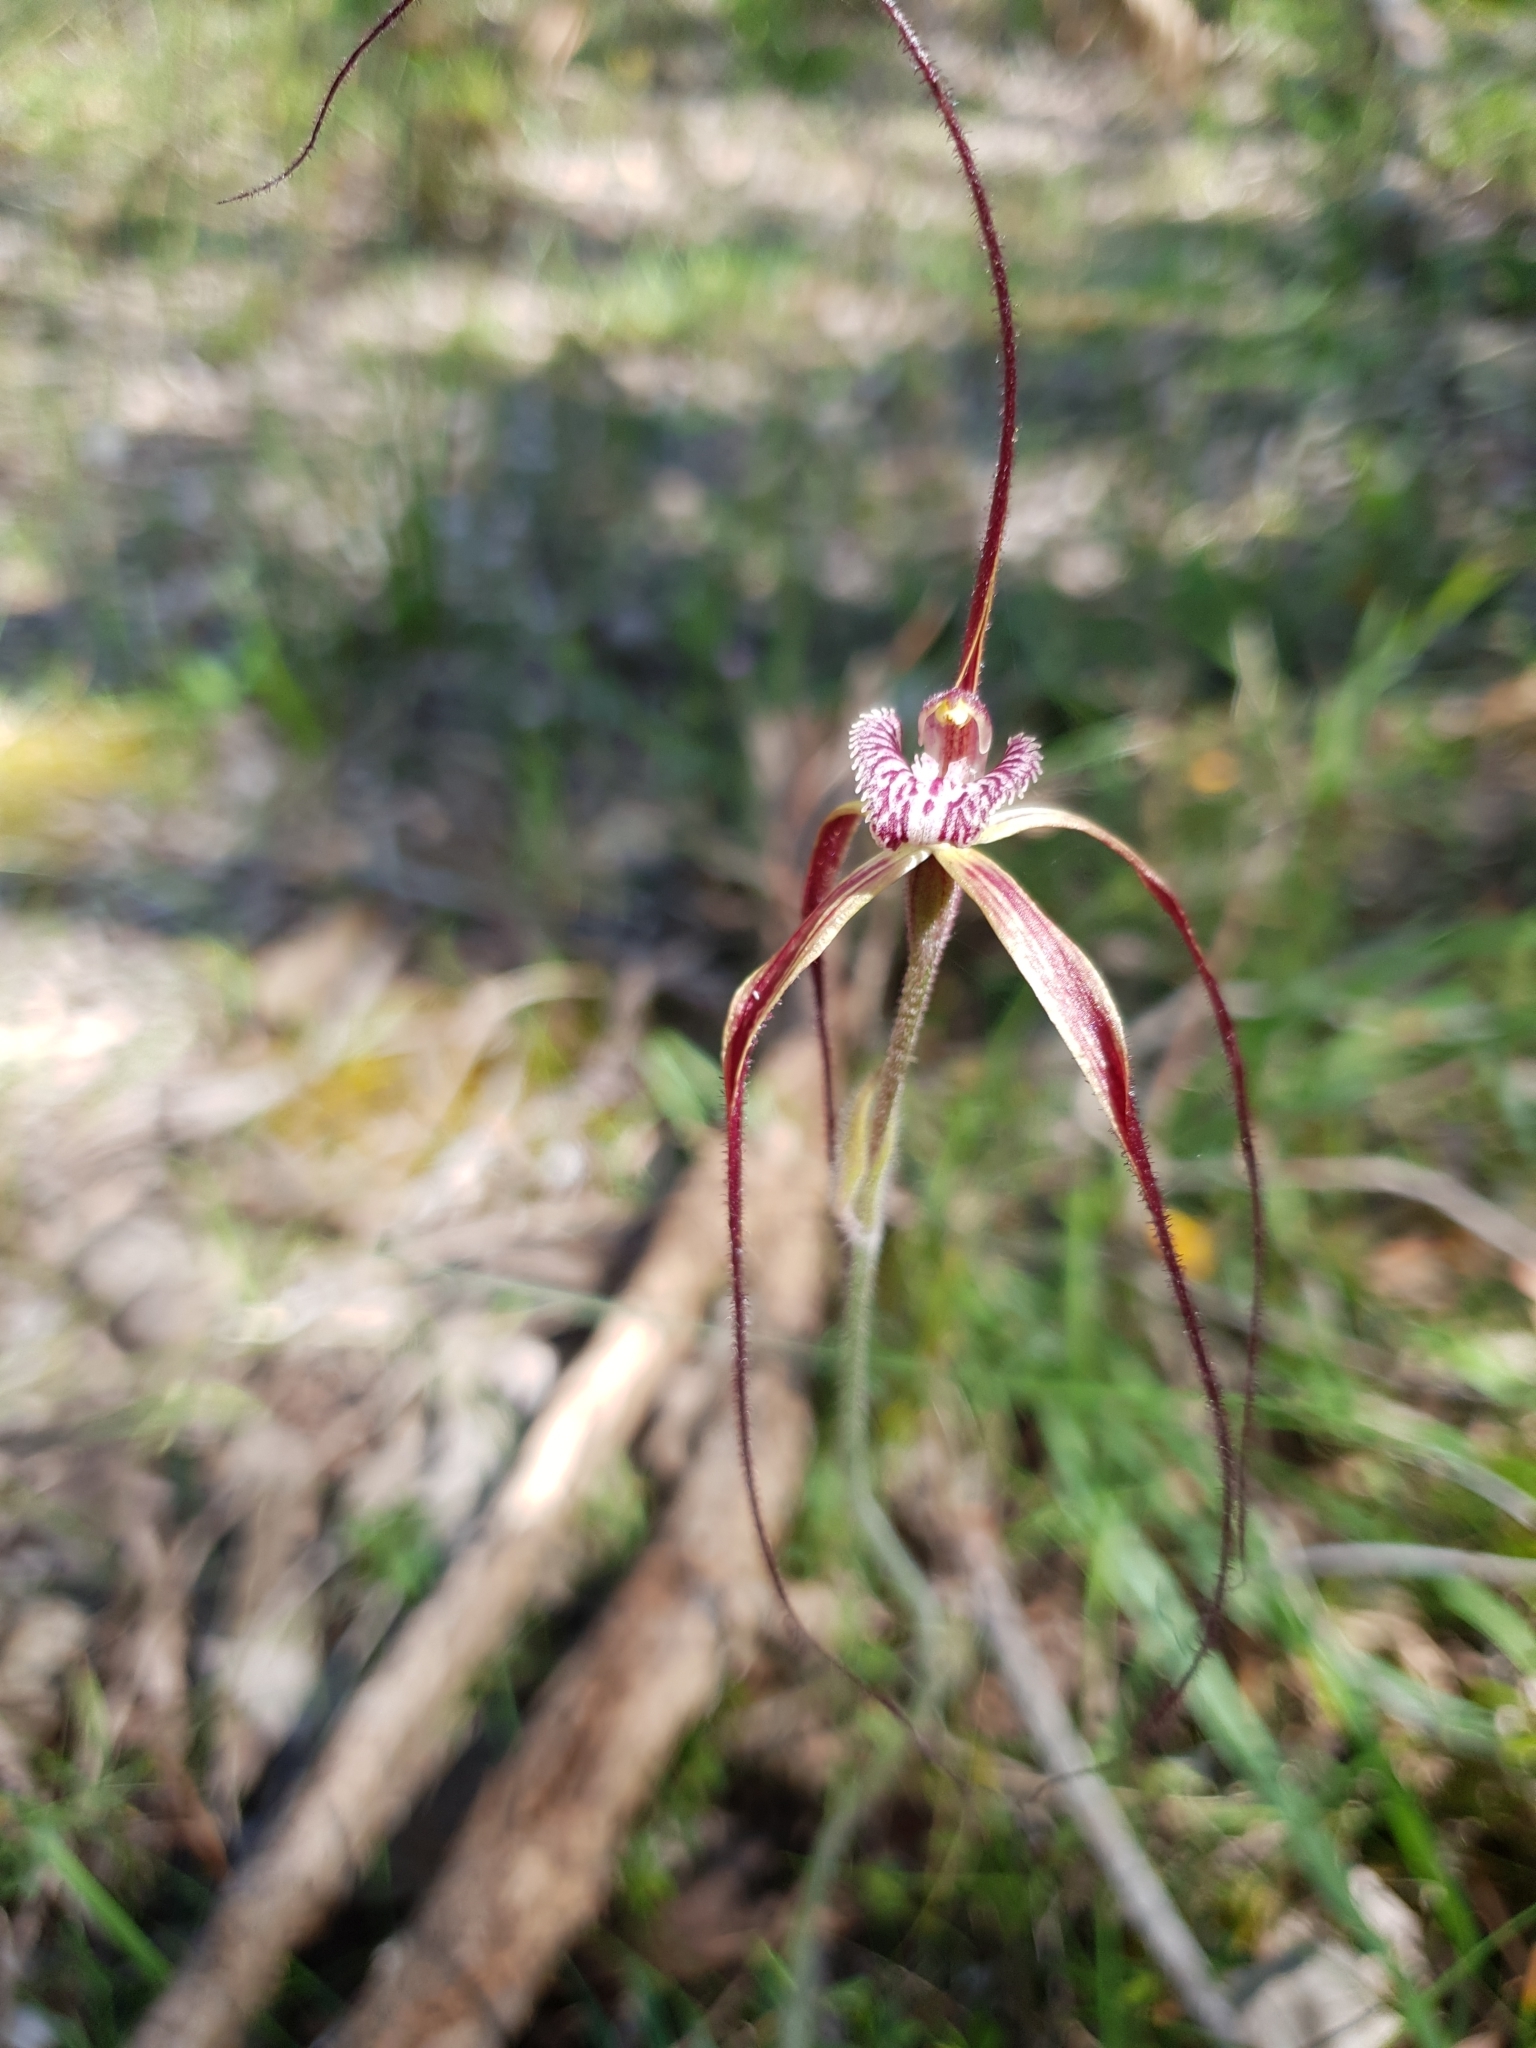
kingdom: Plantae
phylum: Tracheophyta
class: Liliopsida
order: Asparagales
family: Orchidaceae
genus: Caladenia
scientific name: Caladenia chapmanii
